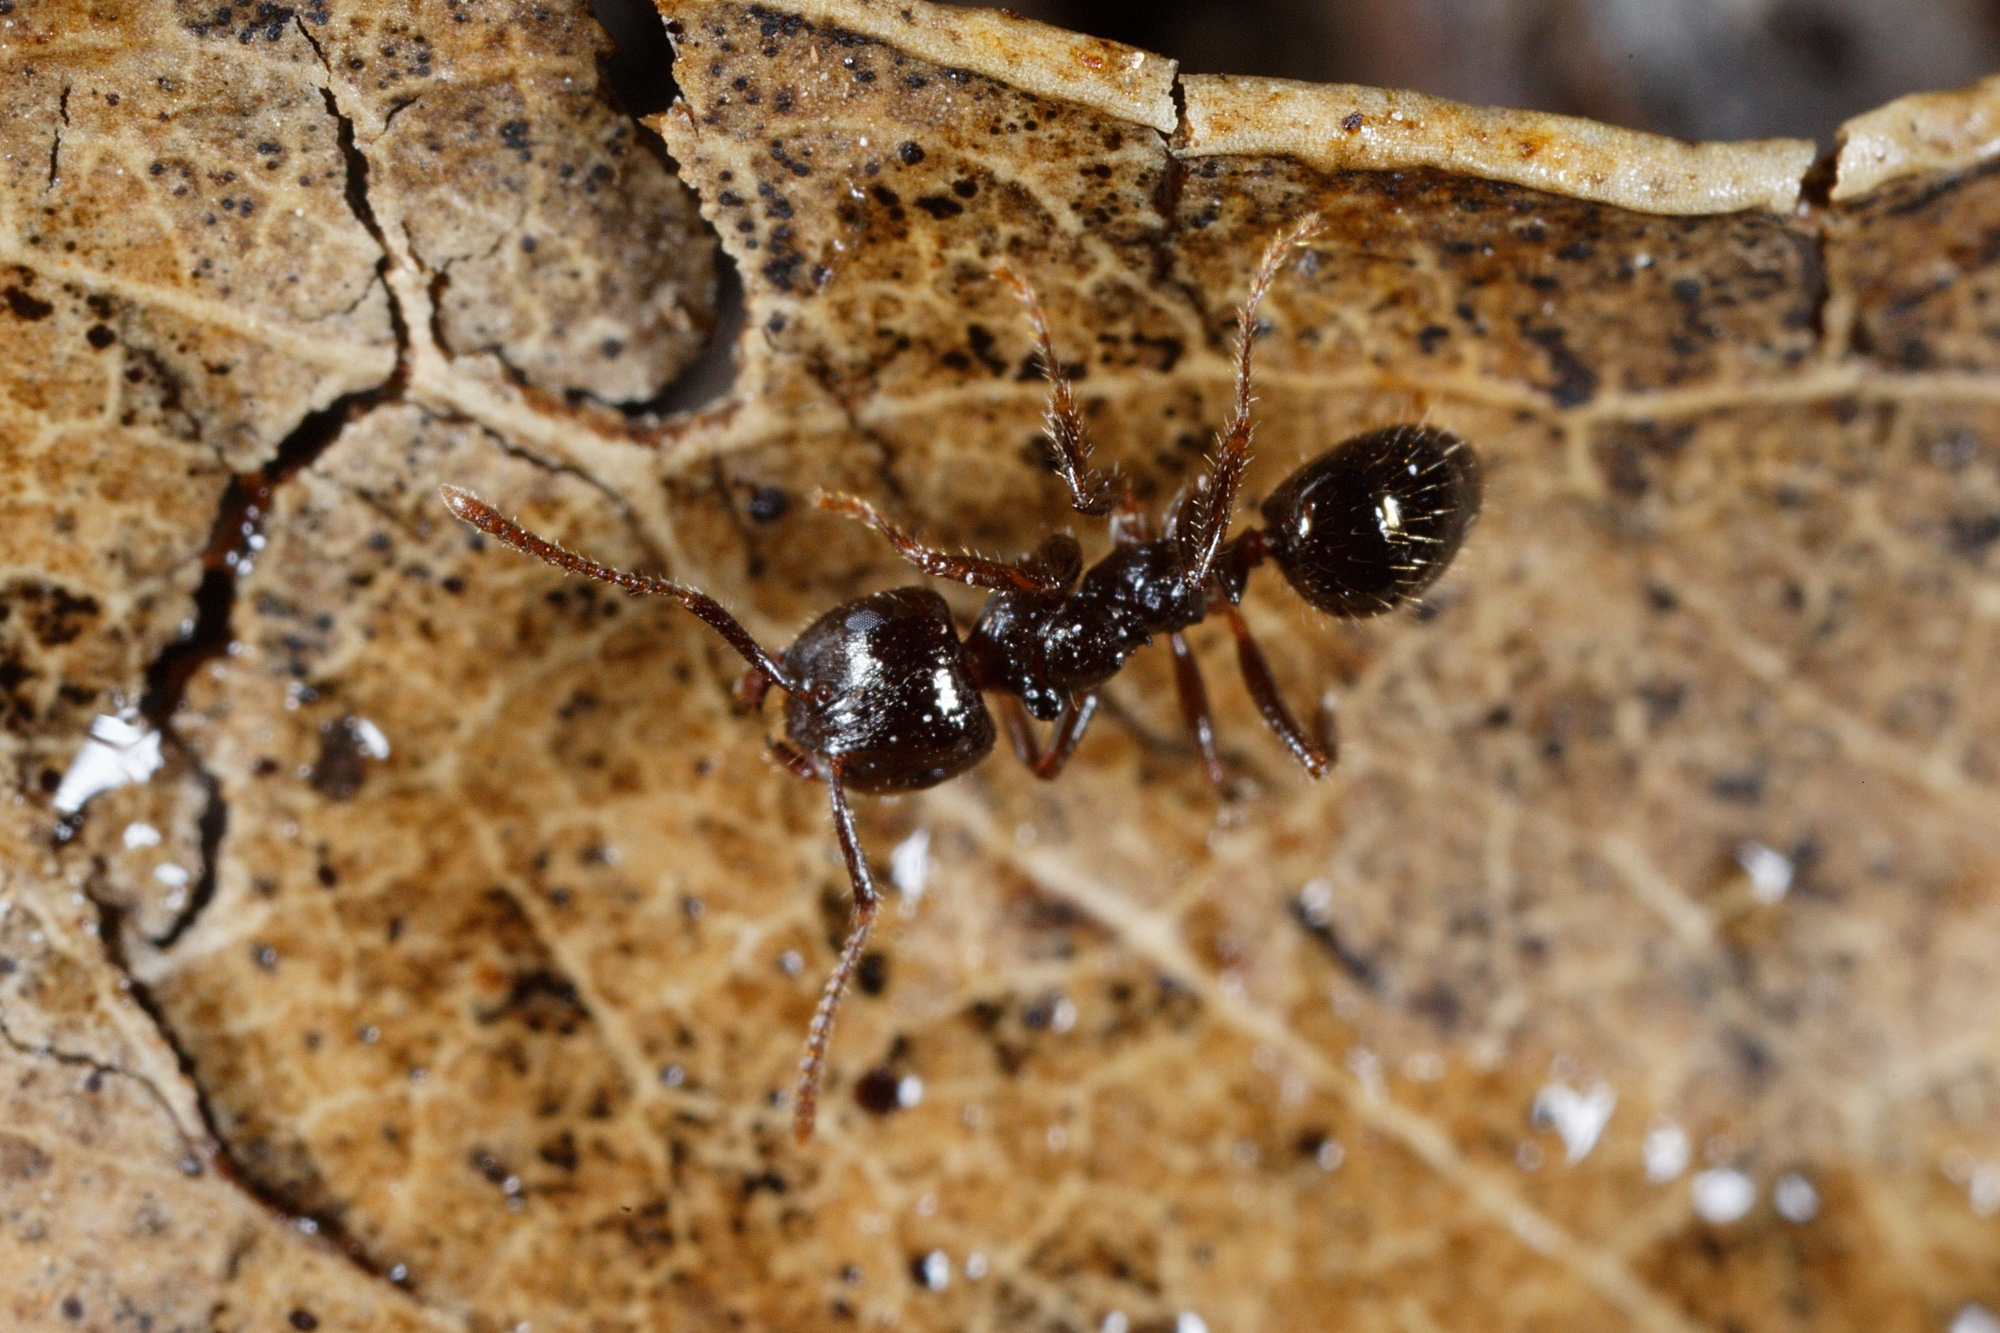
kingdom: Animalia
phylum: Arthropoda
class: Insecta
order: Hymenoptera
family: Formicidae
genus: Notoncus
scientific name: Notoncus ectatommoides
